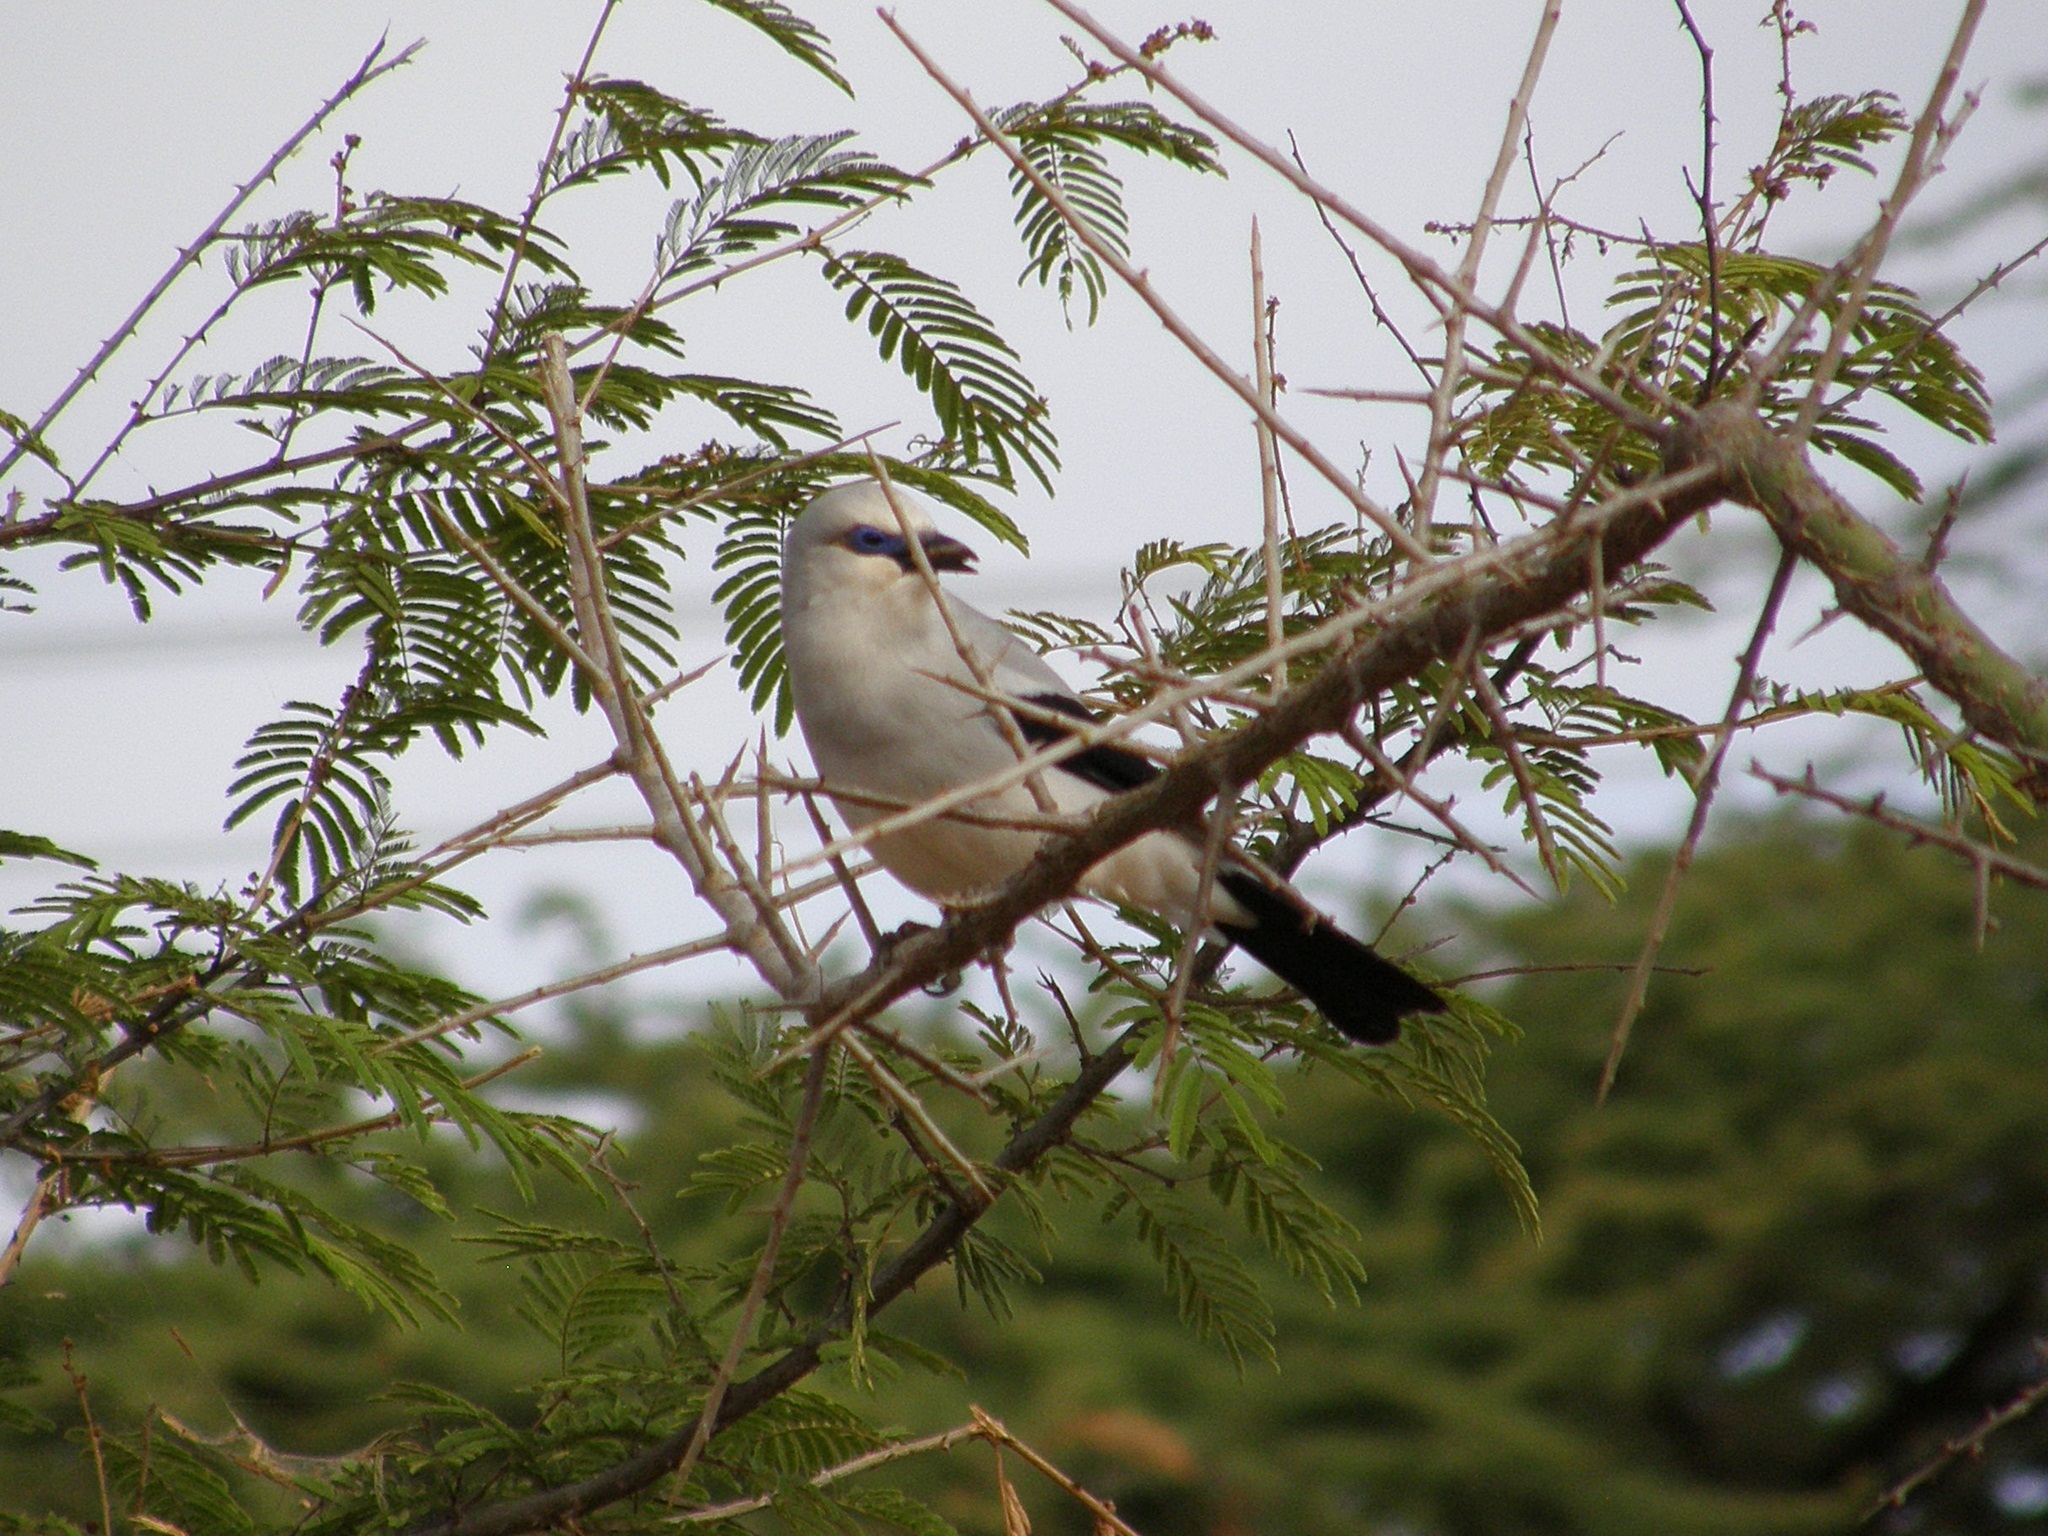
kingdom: Animalia
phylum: Chordata
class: Aves
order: Passeriformes
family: Corvidae
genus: Zavattariornis
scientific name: Zavattariornis stresemanni
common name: Stresemann's bush crow
